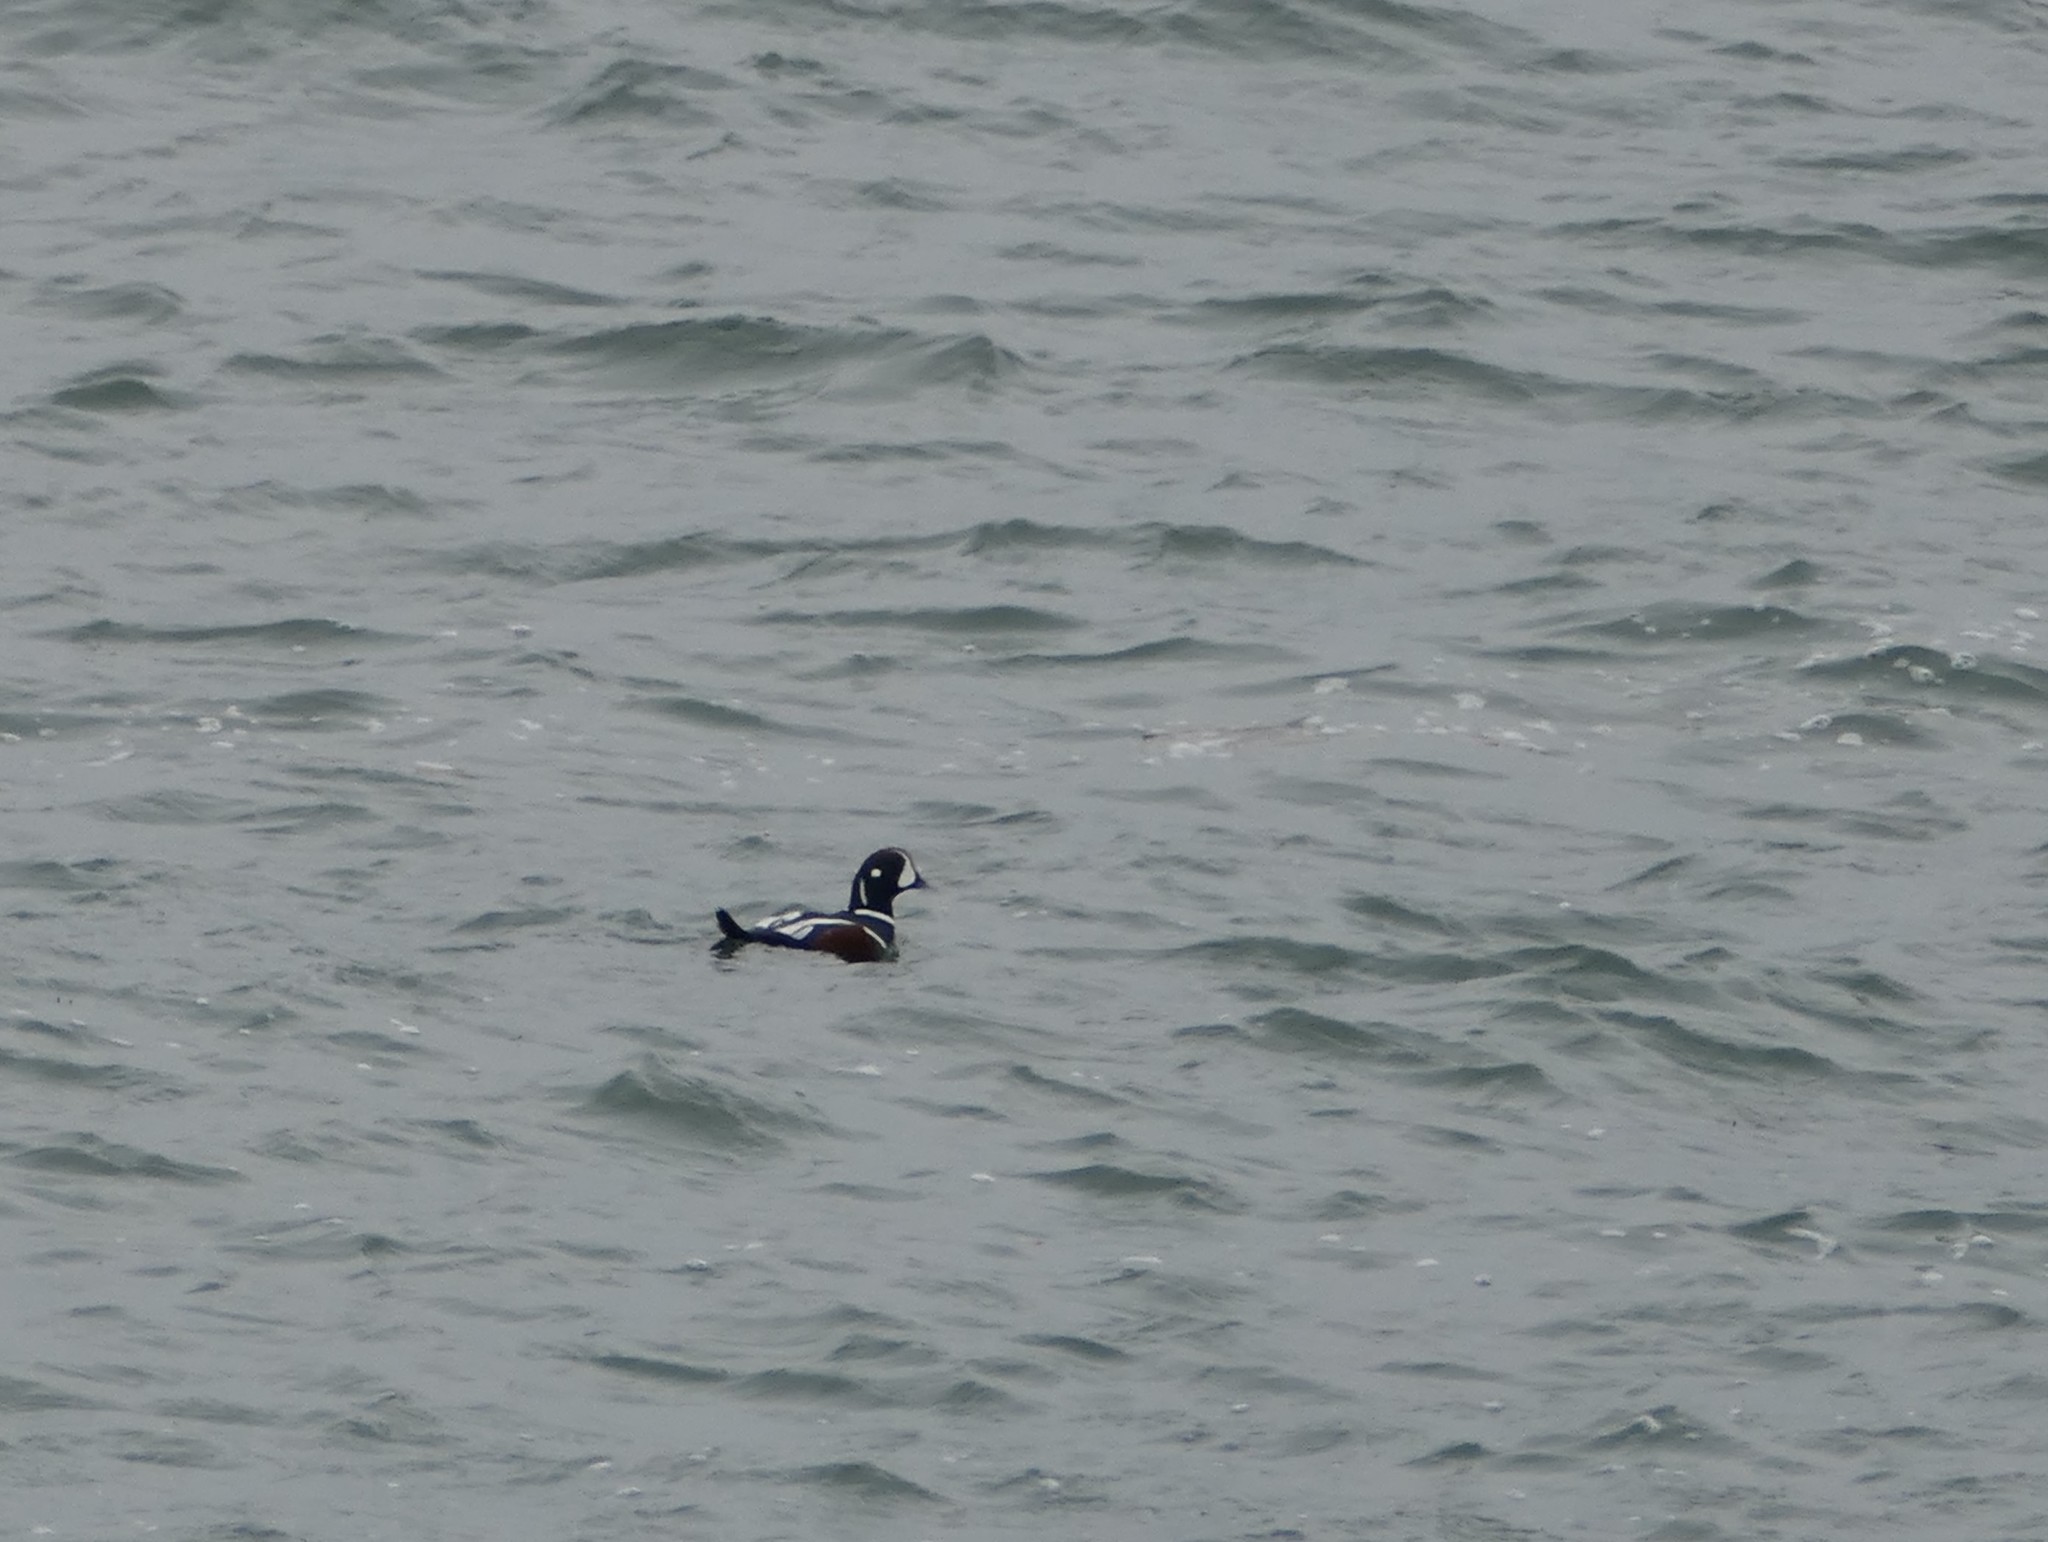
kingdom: Animalia
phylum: Chordata
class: Aves
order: Anseriformes
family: Anatidae
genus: Histrionicus
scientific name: Histrionicus histrionicus
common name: Harlequin duck
